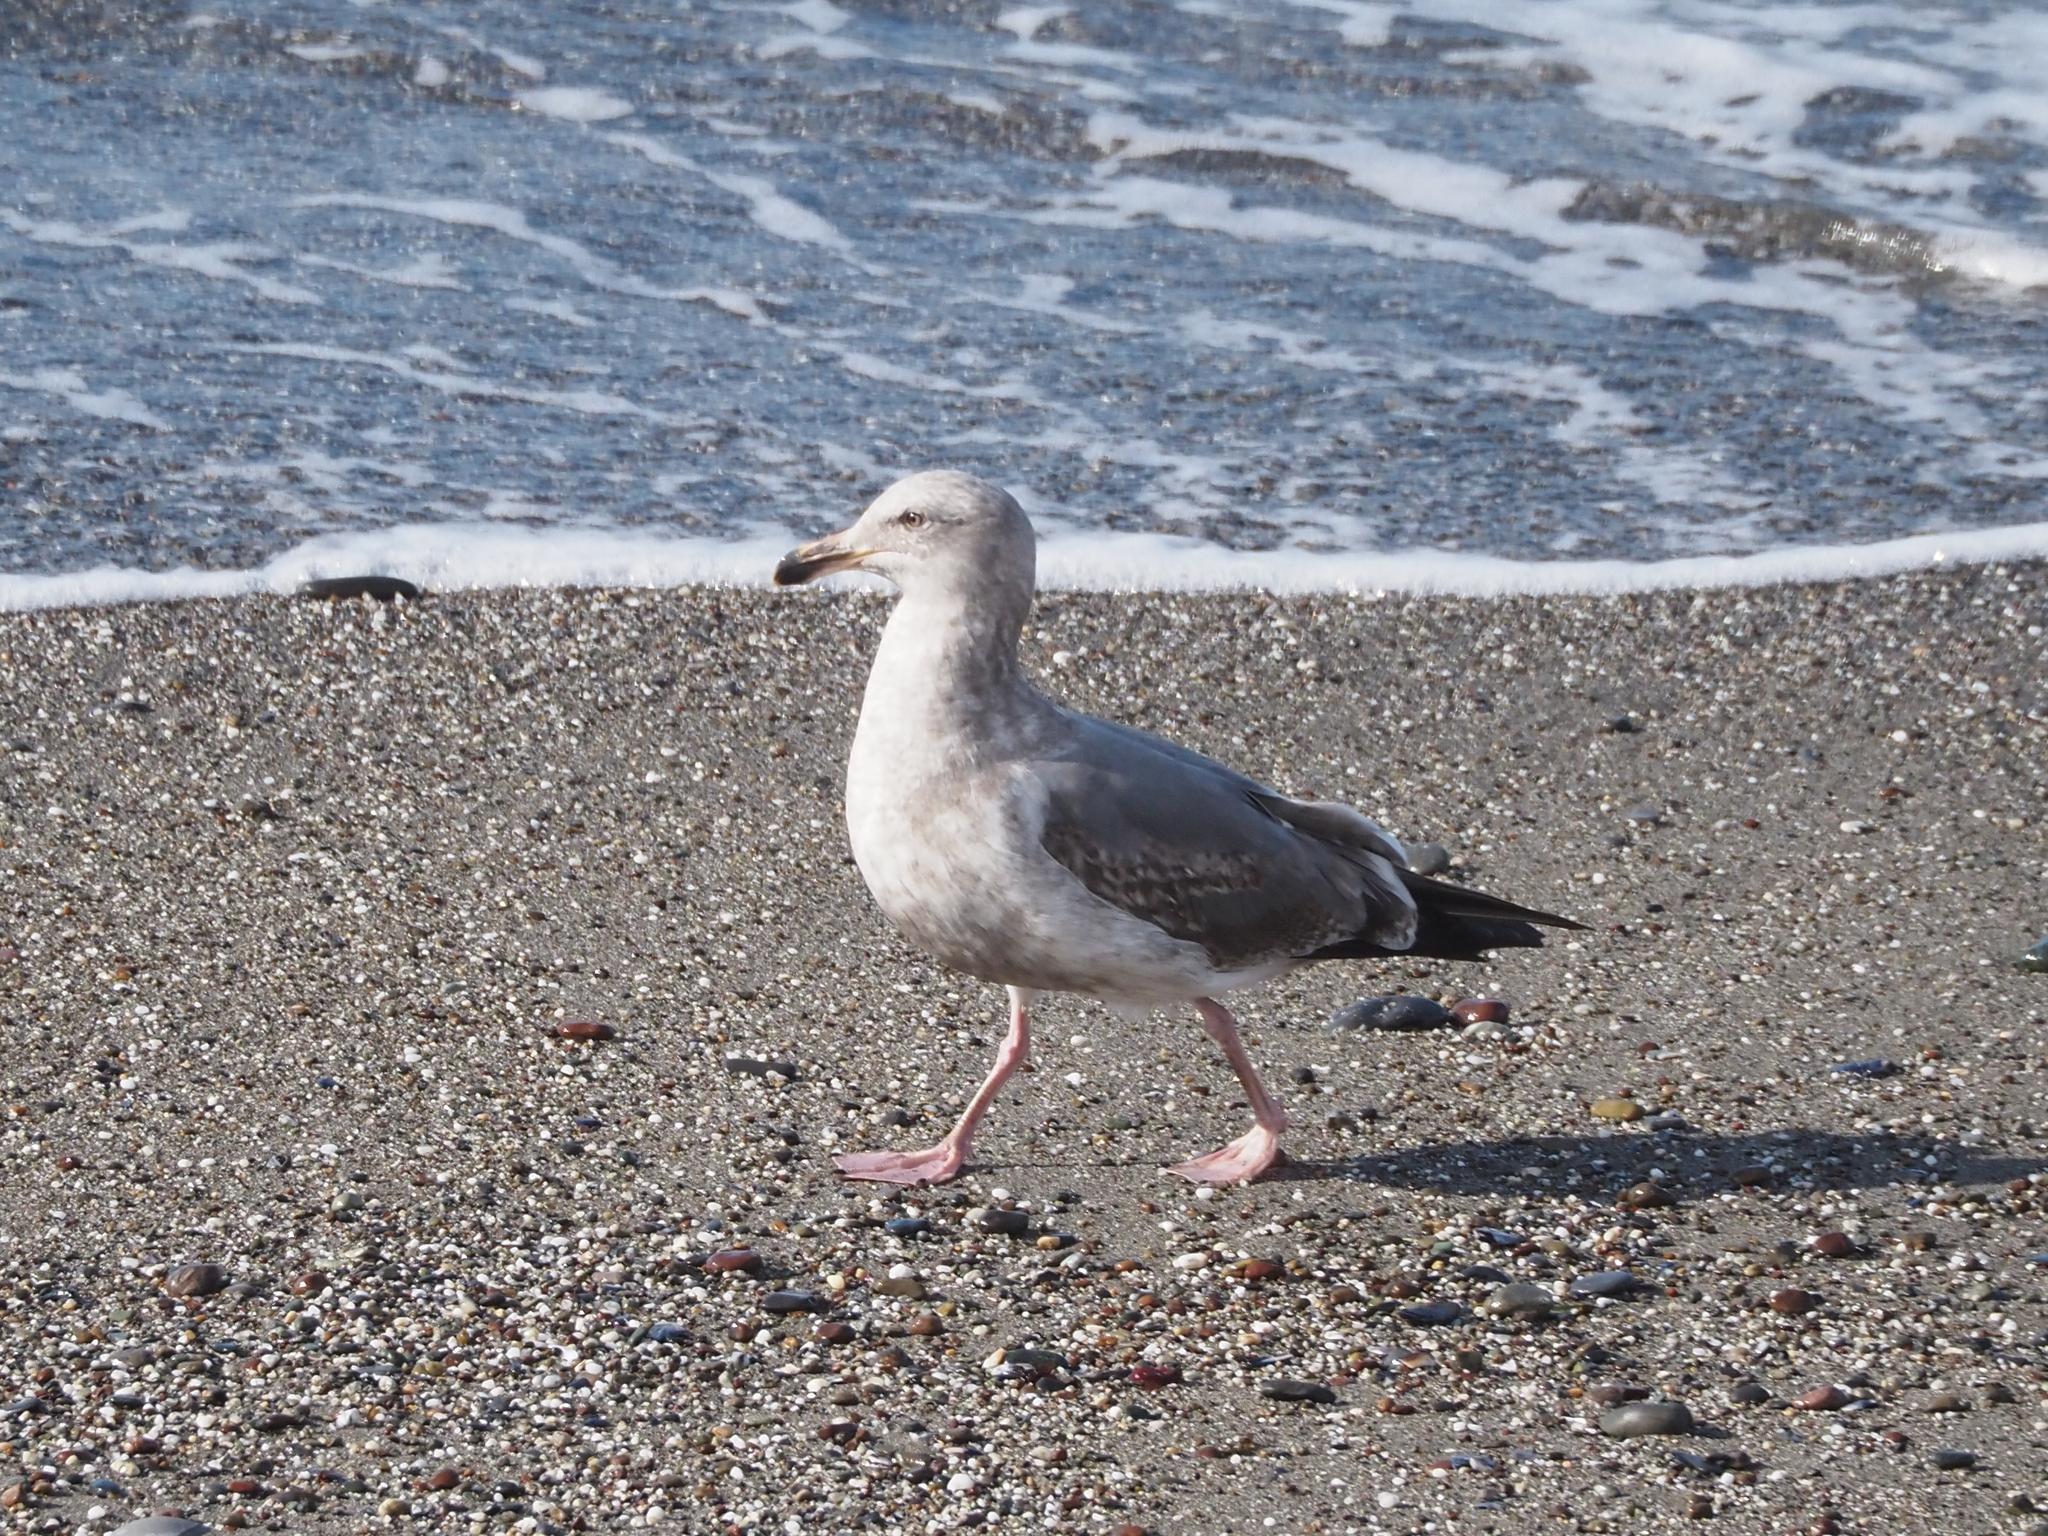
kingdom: Animalia
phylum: Chordata
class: Aves
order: Charadriiformes
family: Laridae
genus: Larus
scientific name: Larus occidentalis
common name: Western gull
